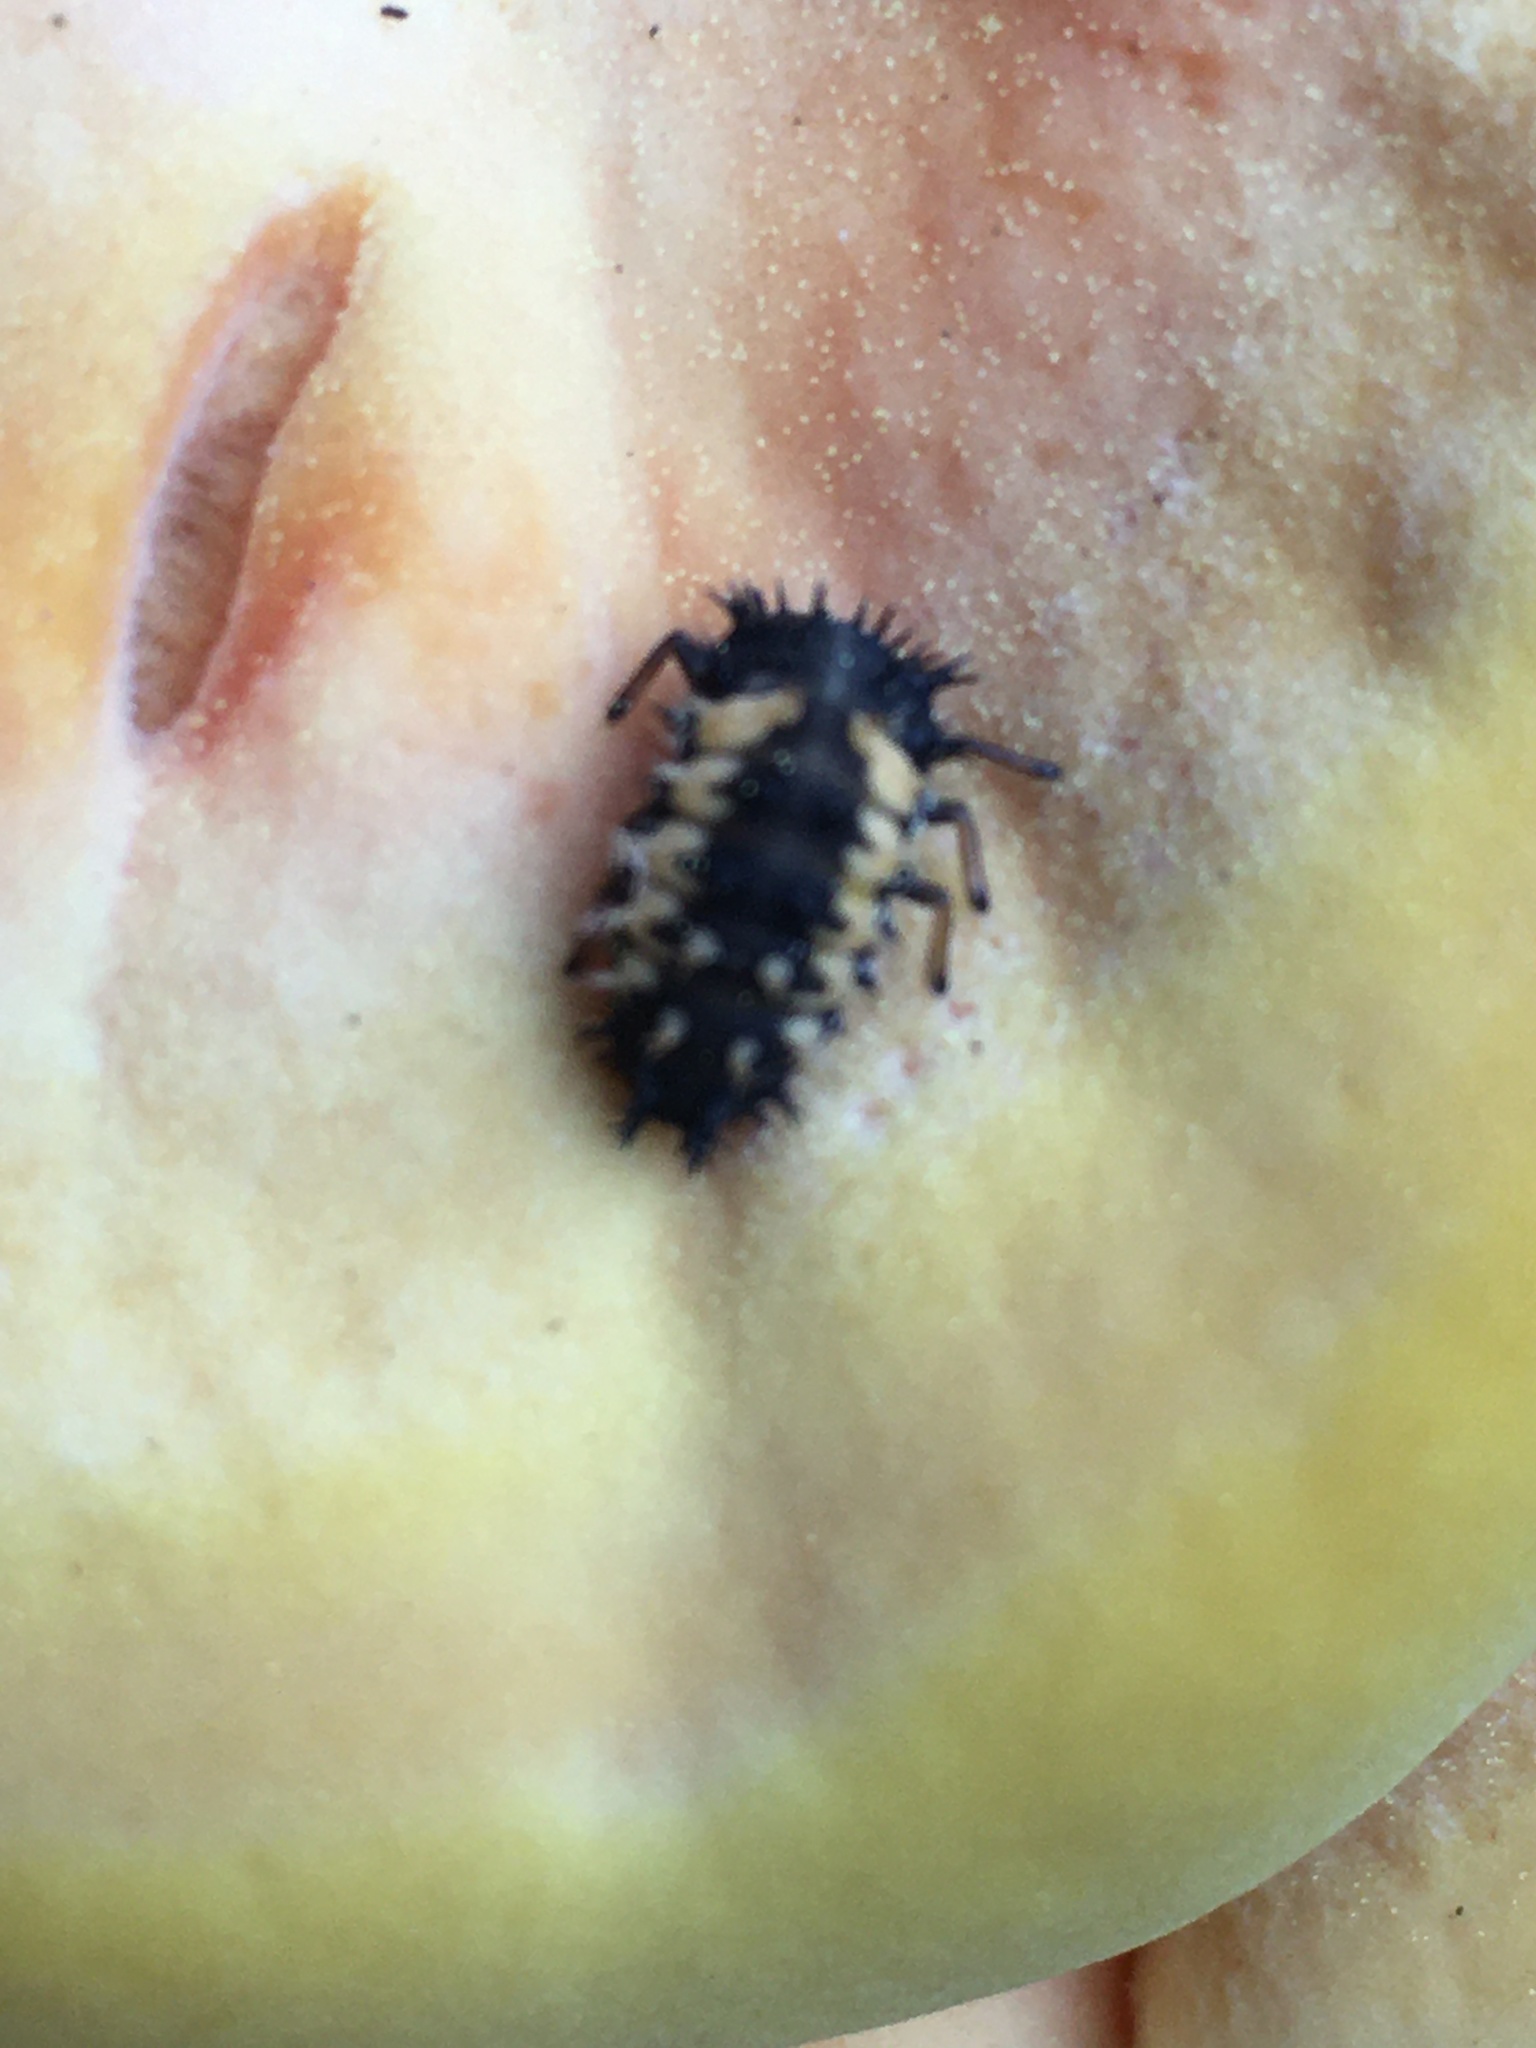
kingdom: Animalia
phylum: Arthropoda
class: Insecta
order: Coleoptera
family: Coccinellidae
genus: Harmonia
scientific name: Harmonia axyridis
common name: Harlequin ladybird
